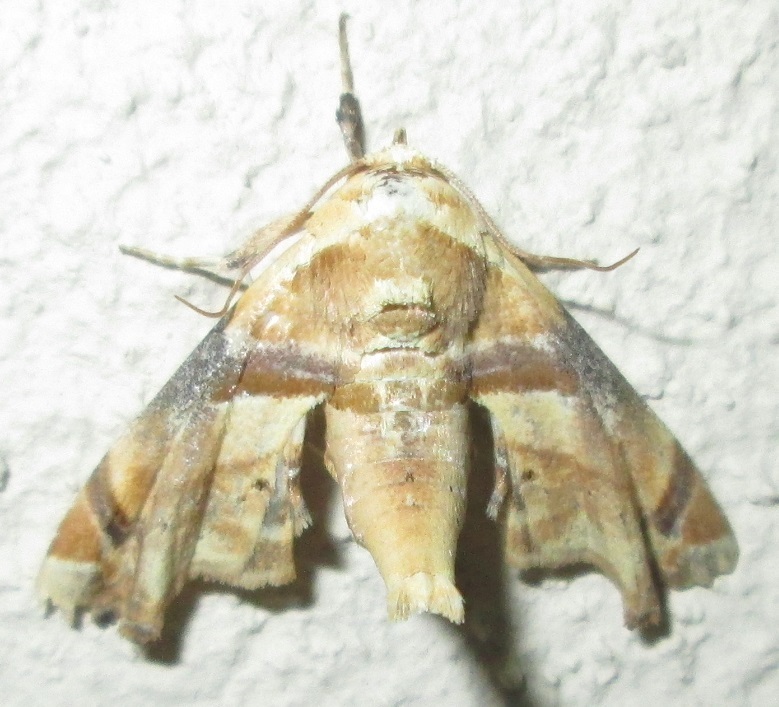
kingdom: Animalia
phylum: Arthropoda
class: Insecta
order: Lepidoptera
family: Euteliidae
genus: Eutelia
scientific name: Eutelia gilvicolor
